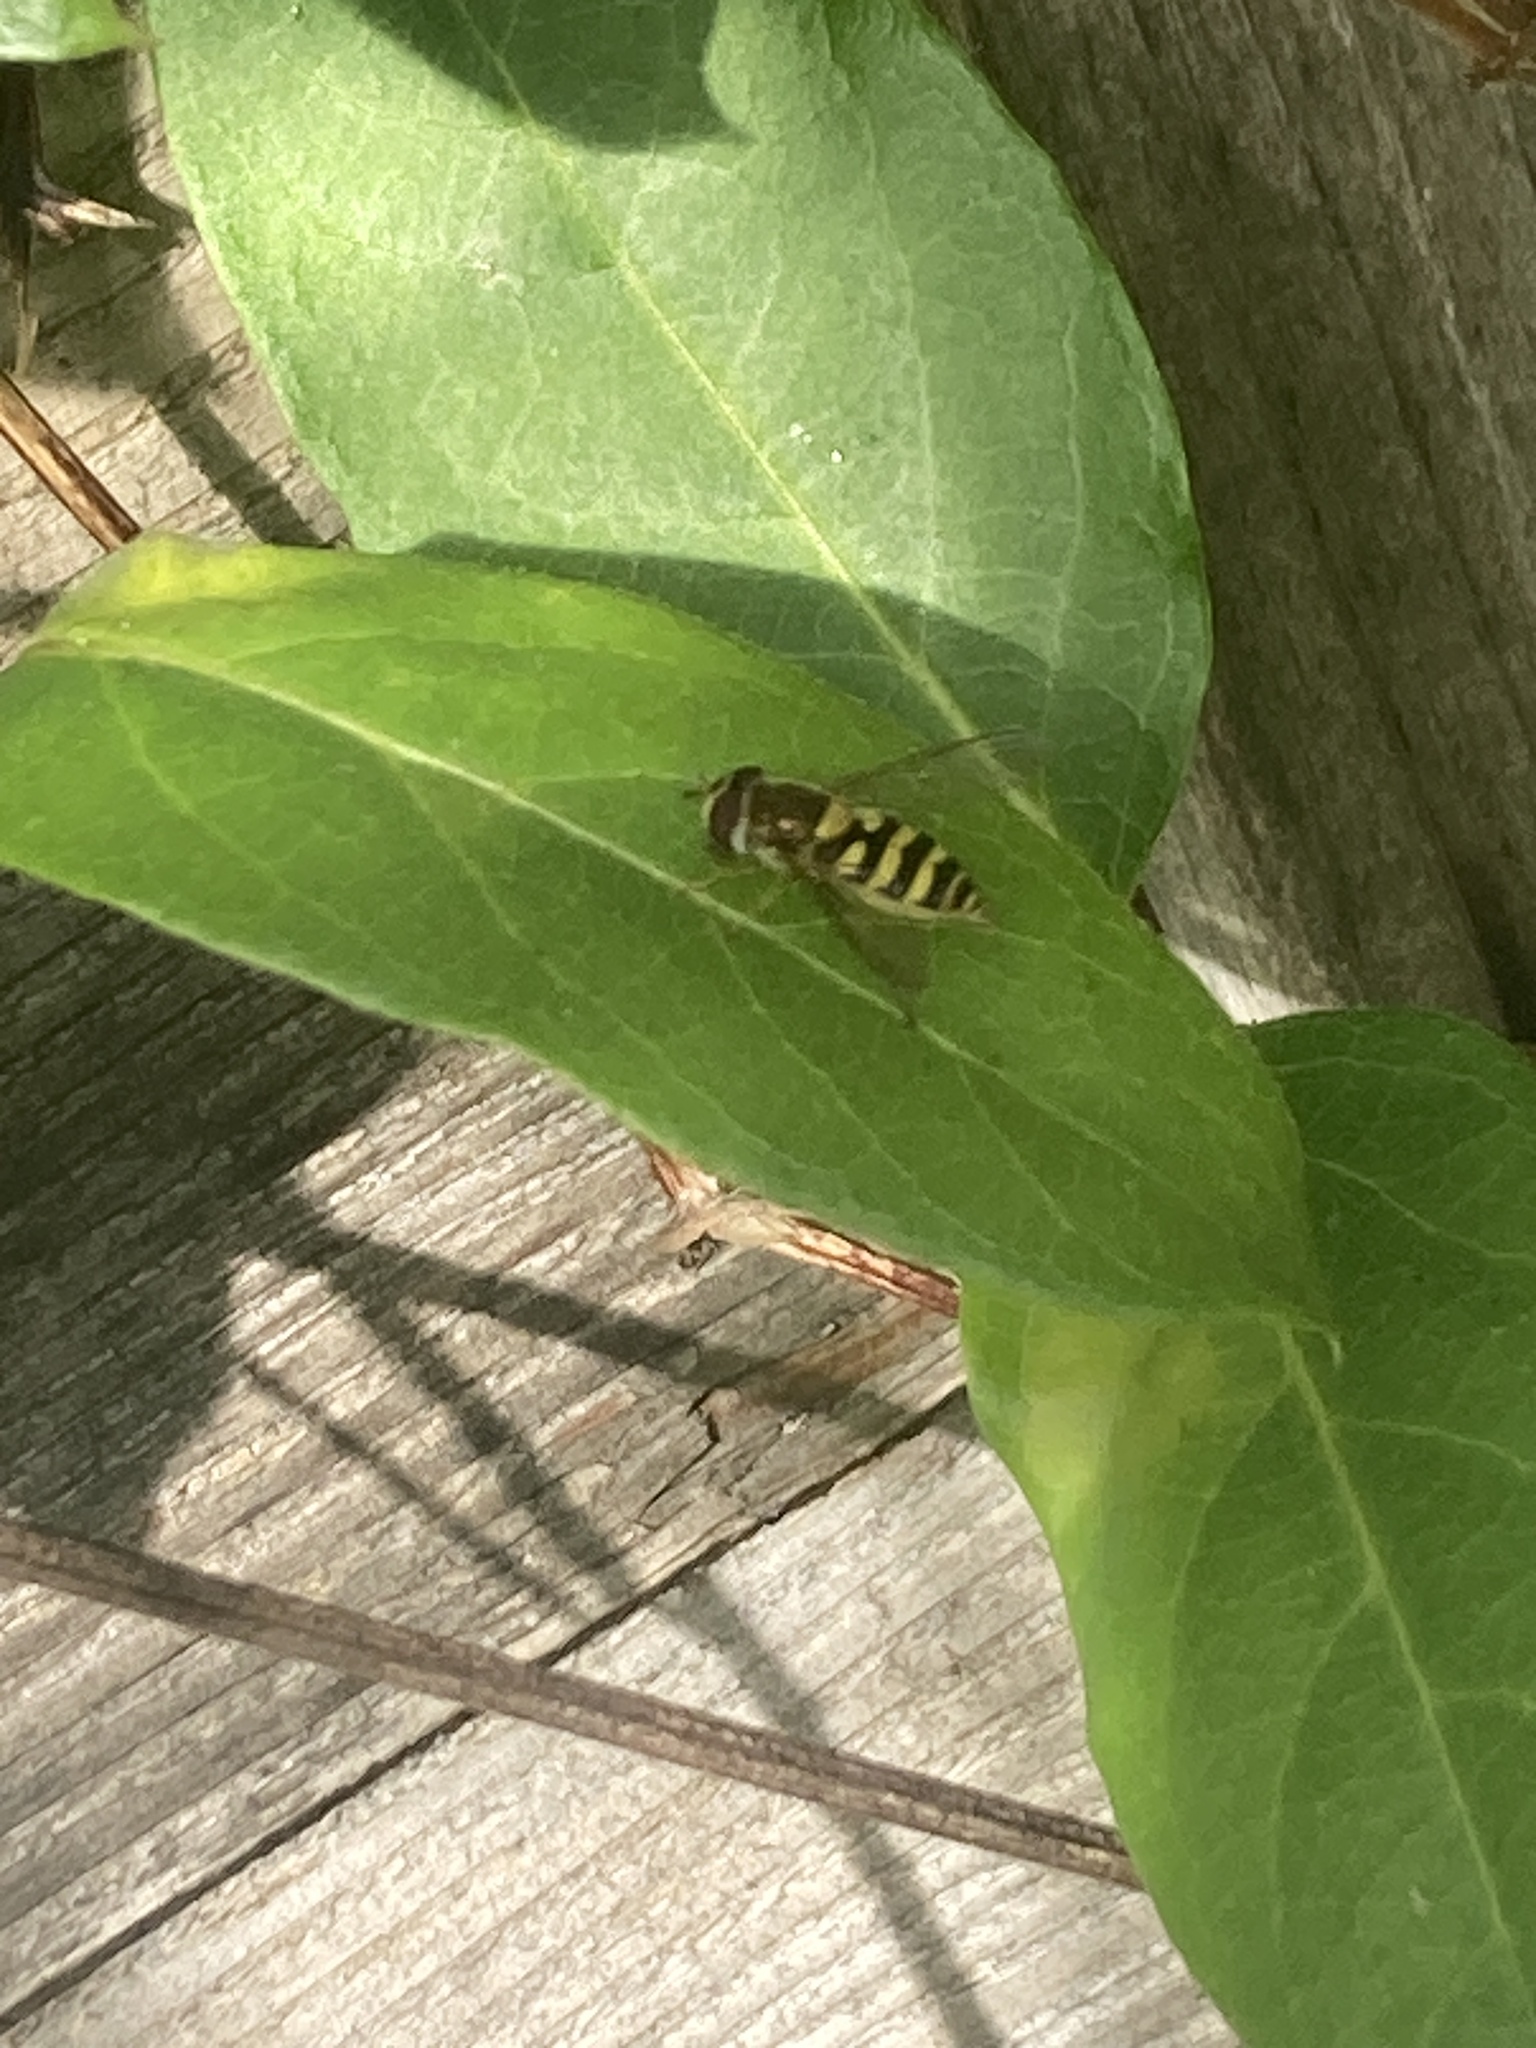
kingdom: Animalia
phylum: Arthropoda
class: Insecta
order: Diptera
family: Syrphidae
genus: Syrphus
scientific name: Syrphus
